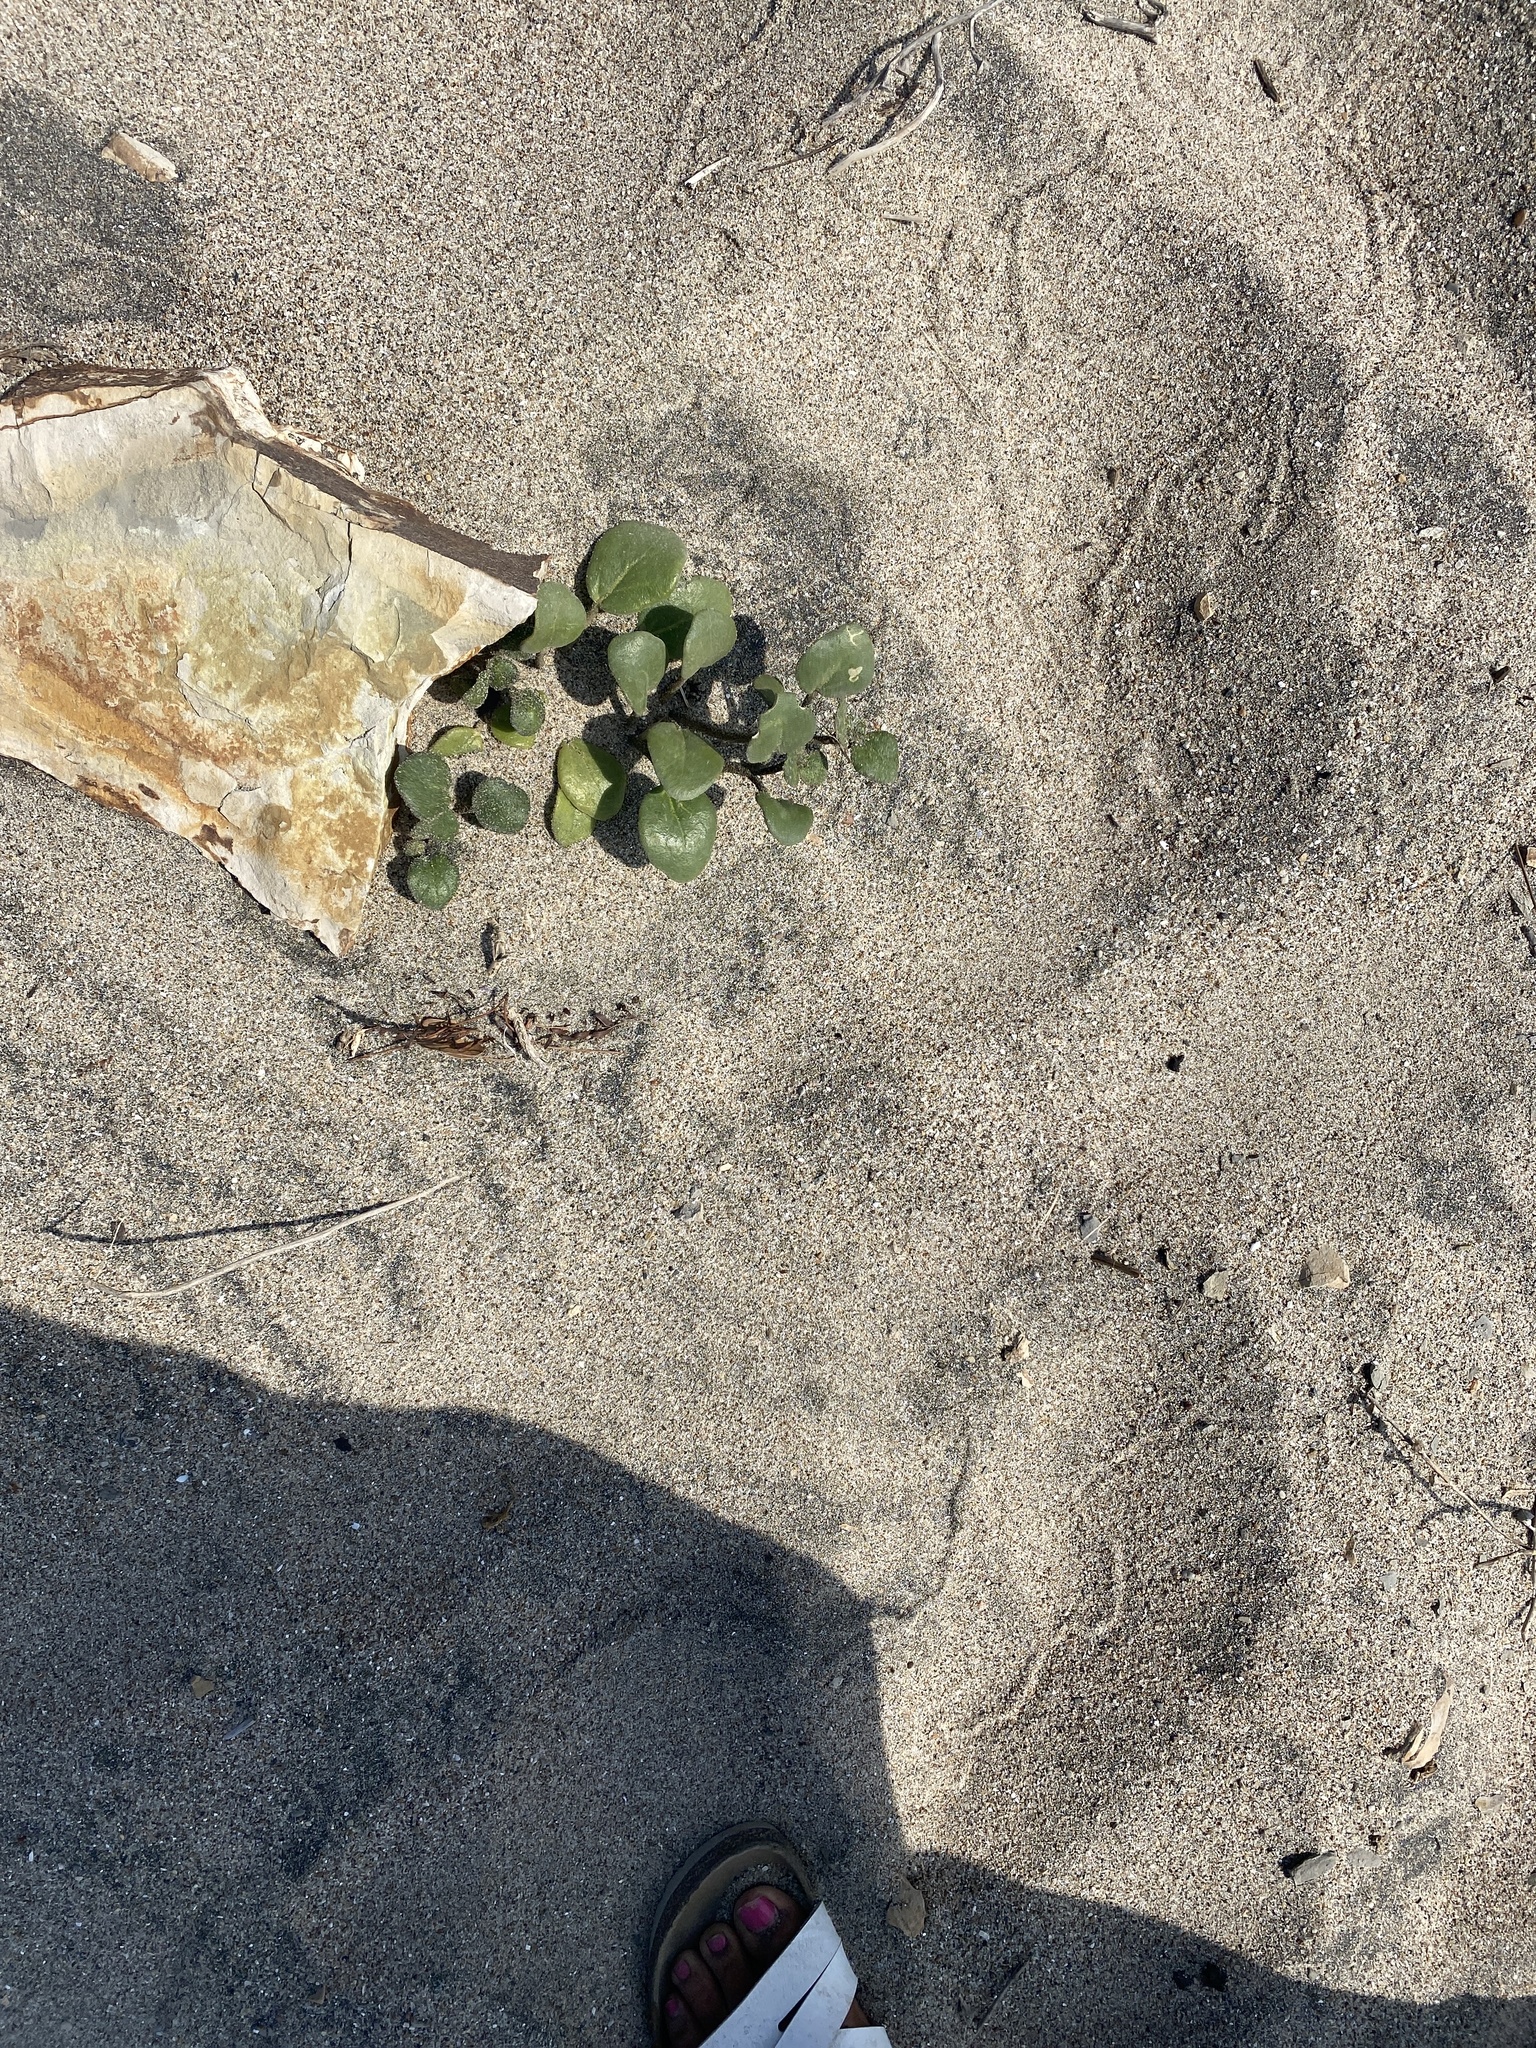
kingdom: Plantae
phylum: Tracheophyta
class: Magnoliopsida
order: Caryophyllales
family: Nyctaginaceae
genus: Abronia
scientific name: Abronia latifolia
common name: Yellow sand-verbena
